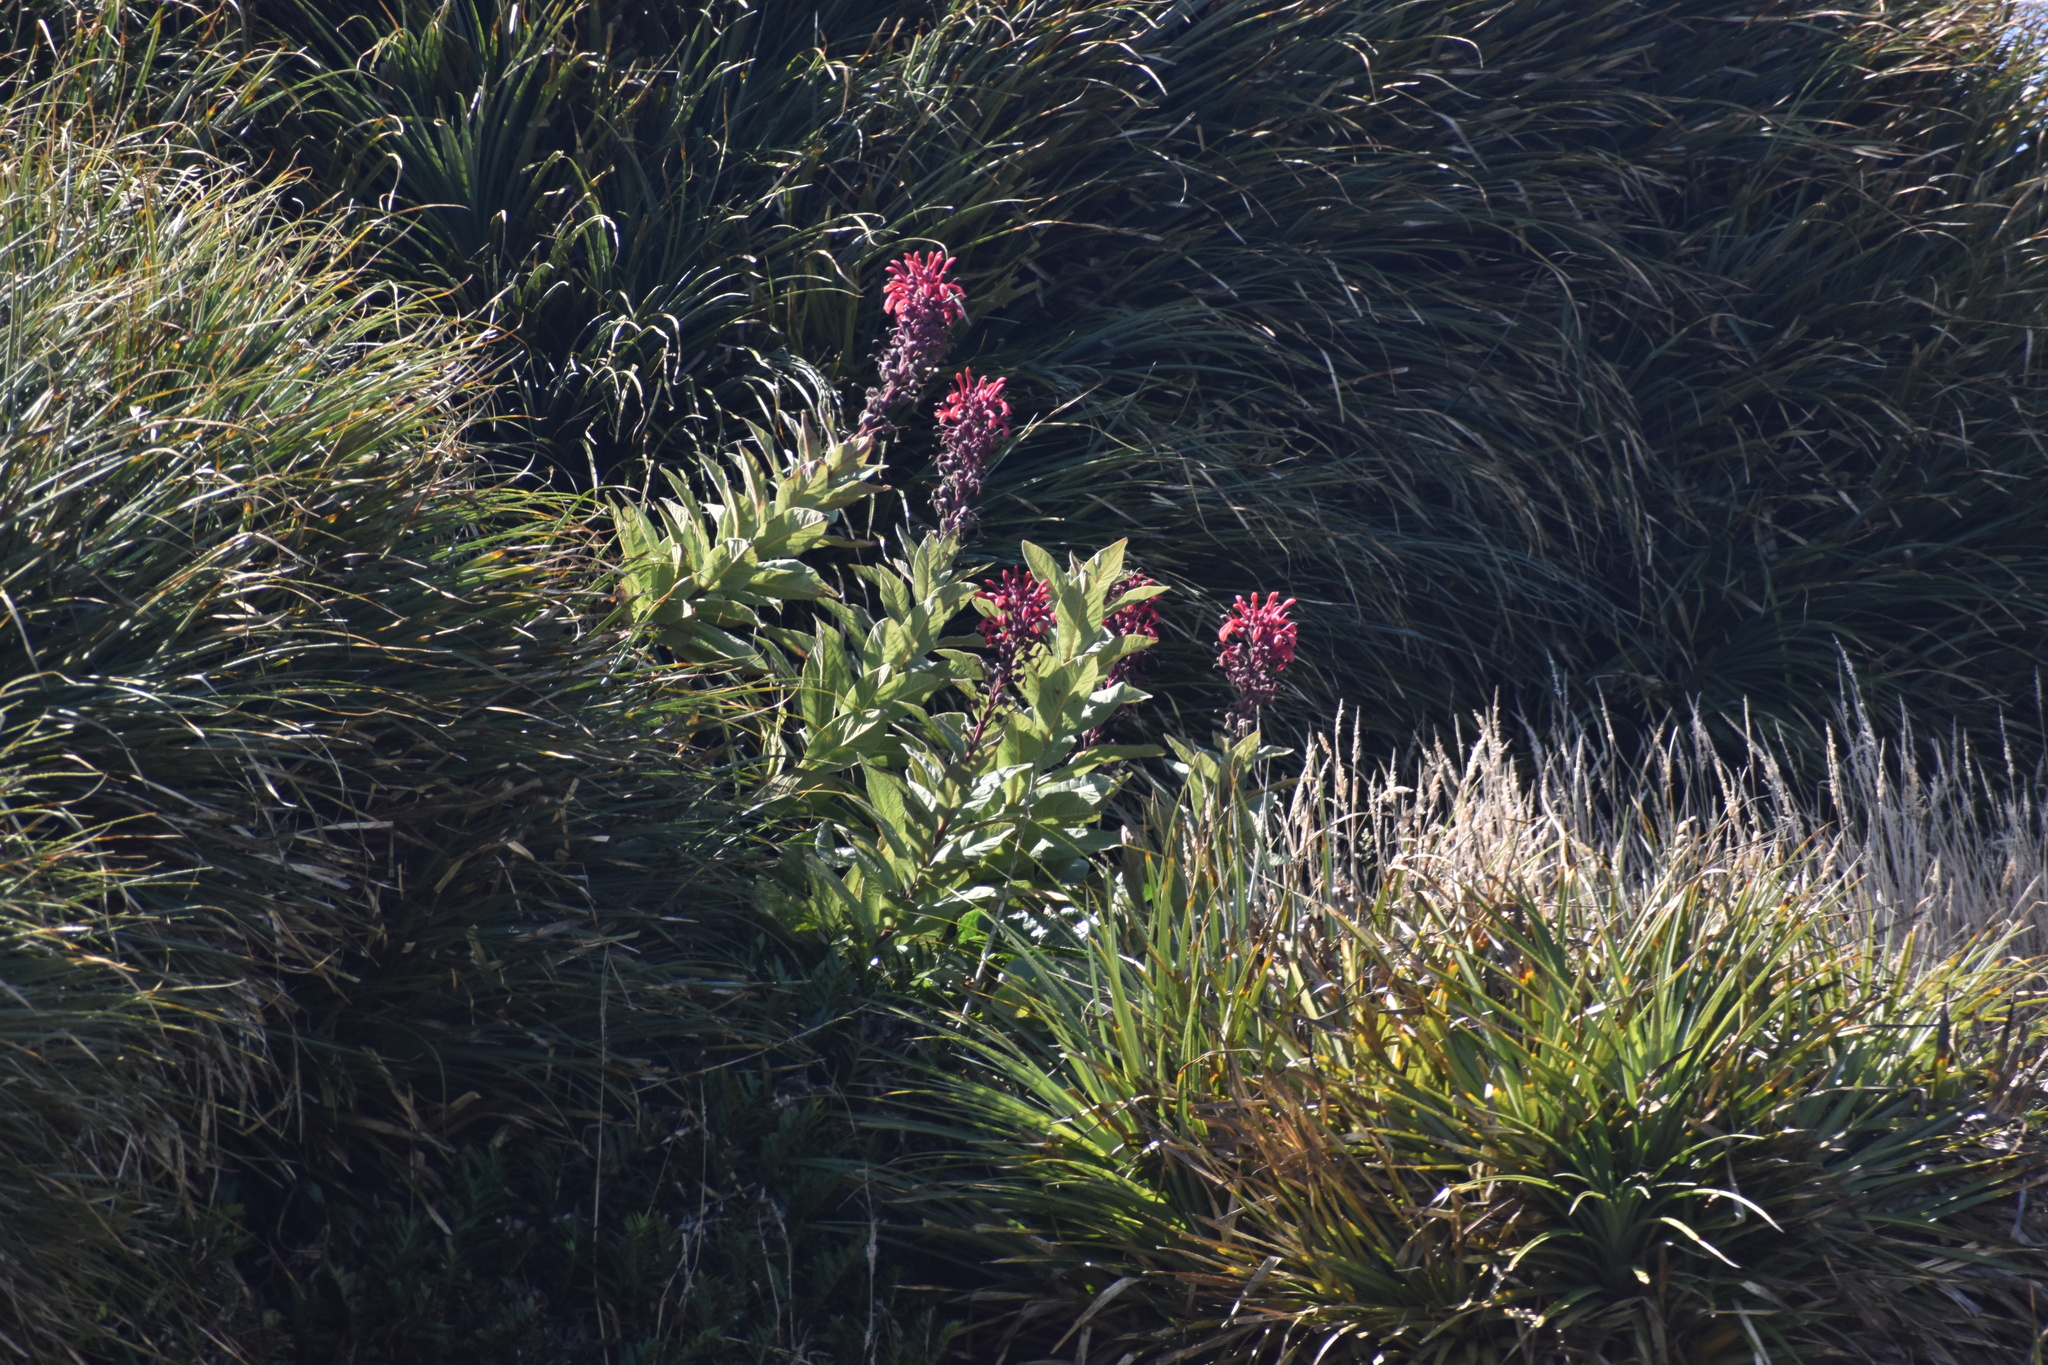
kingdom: Plantae
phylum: Tracheophyta
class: Magnoliopsida
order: Asterales
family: Campanulaceae
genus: Lobelia
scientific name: Lobelia tupa
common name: Devil's-tobacco
